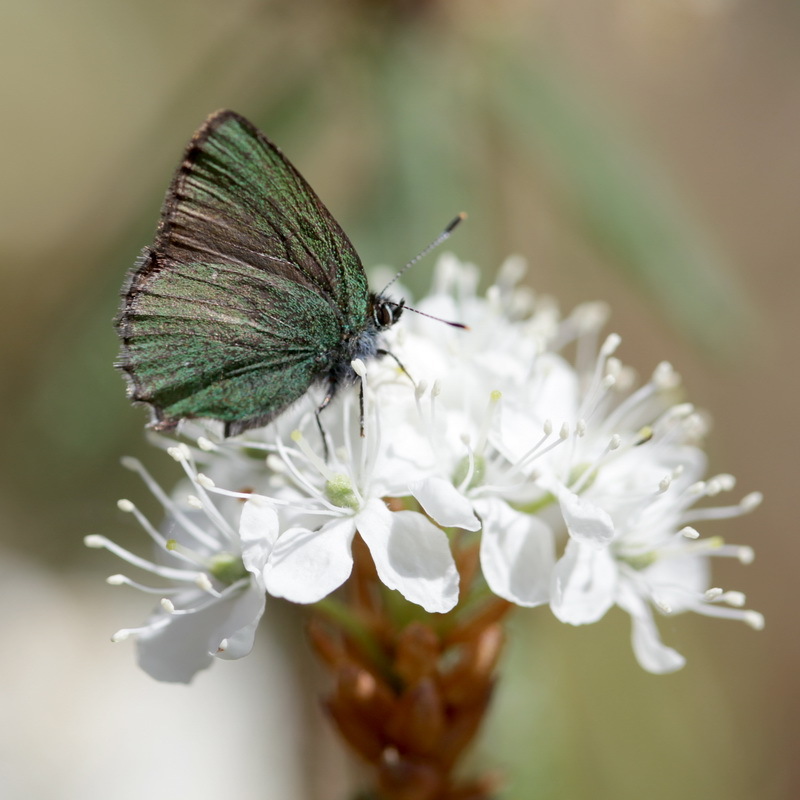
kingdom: Animalia
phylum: Arthropoda
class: Insecta
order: Lepidoptera
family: Lycaenidae
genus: Callophrys
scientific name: Callophrys rubi
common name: Green hairstreak
